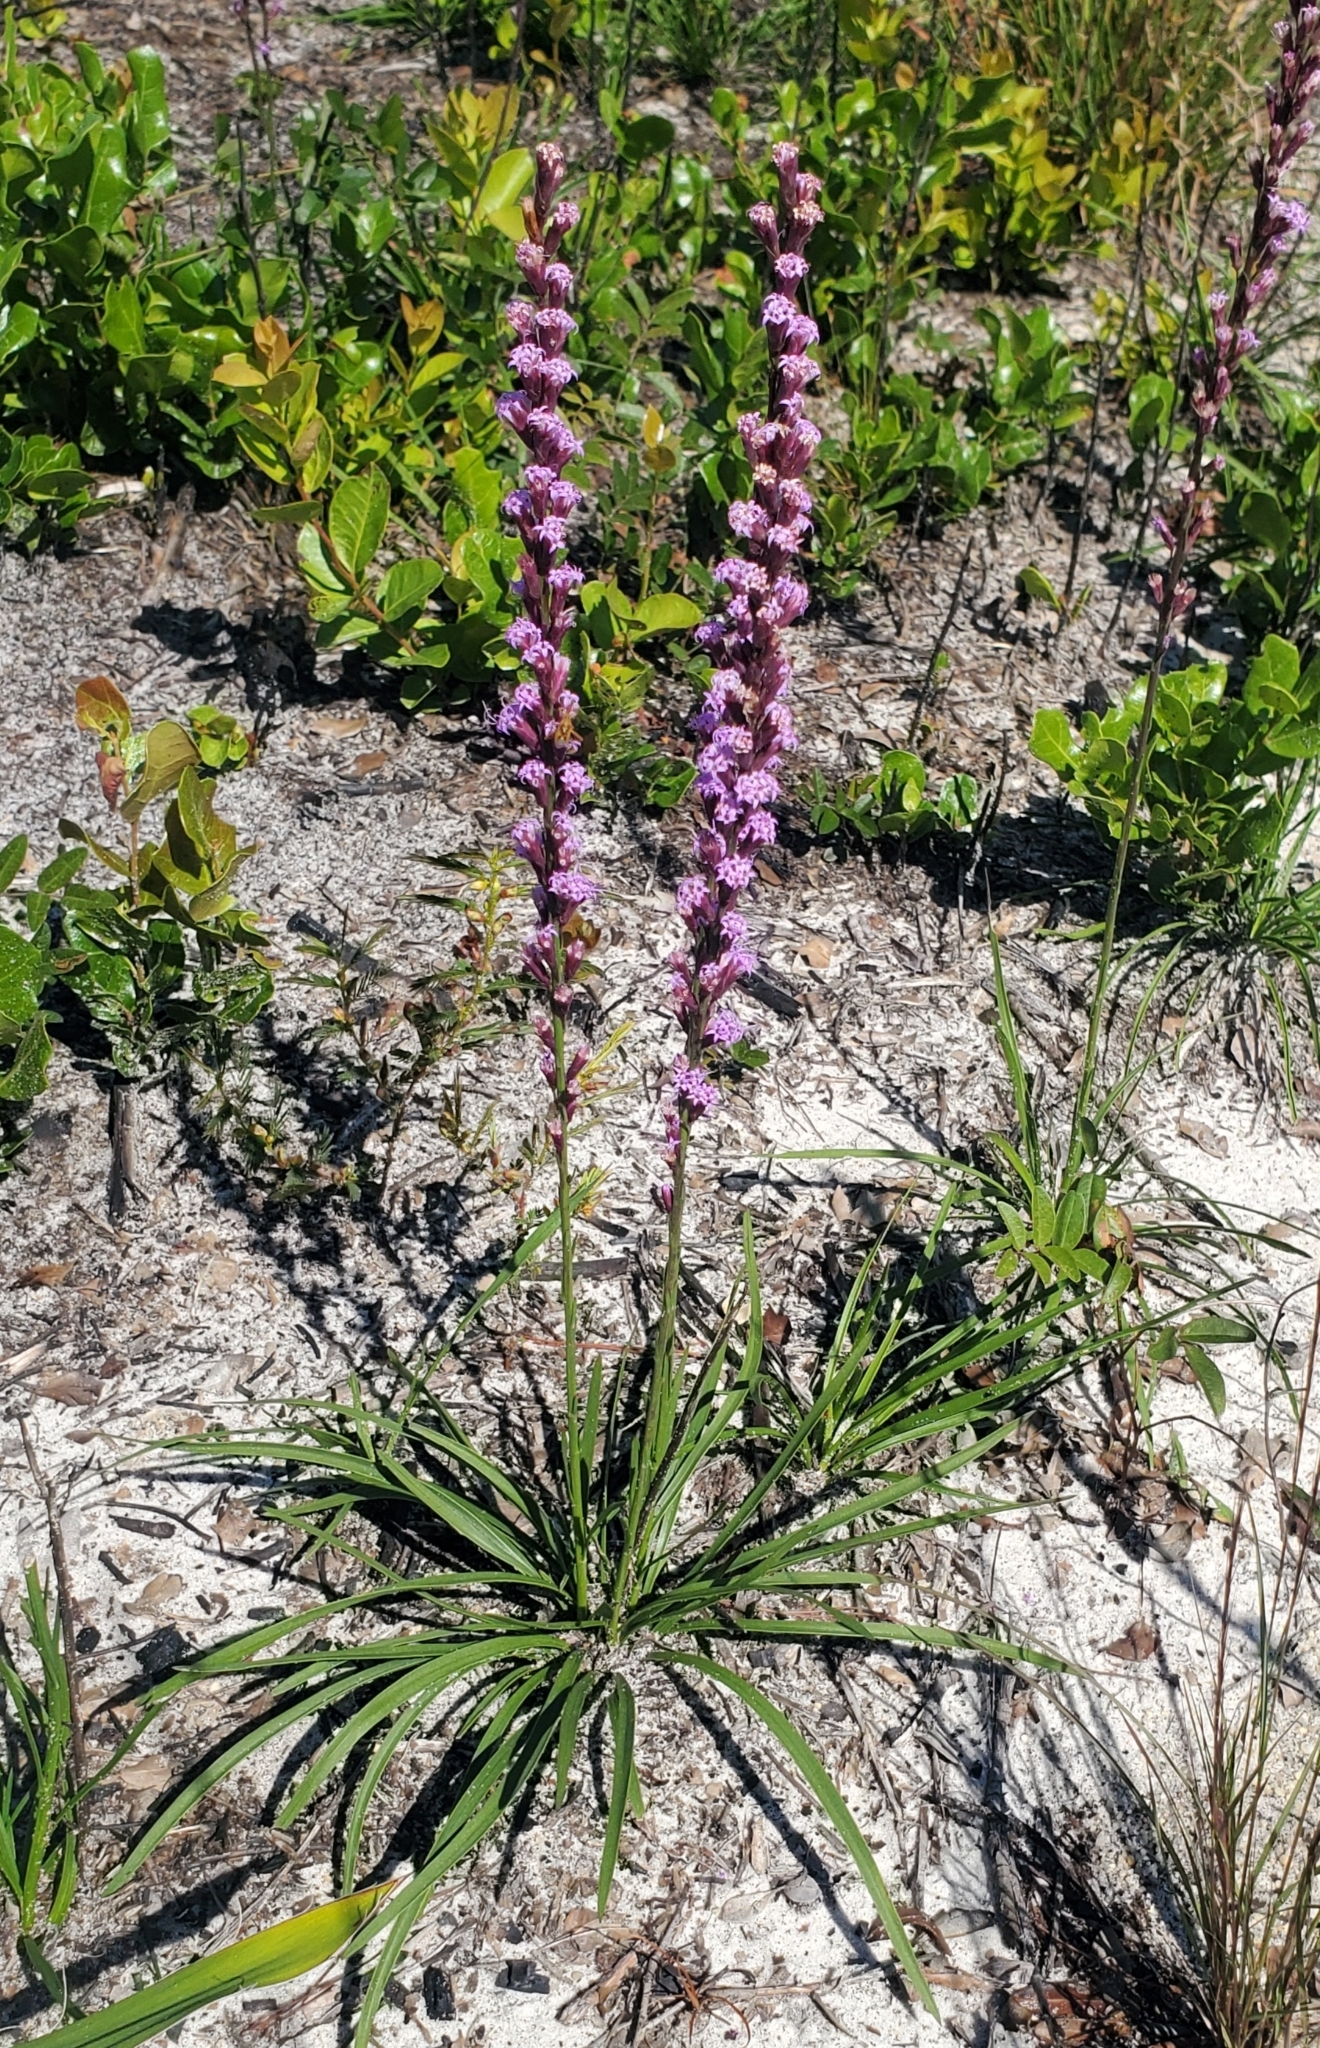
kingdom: Plantae
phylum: Tracheophyta
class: Magnoliopsida
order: Asterales
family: Asteraceae
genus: Liatris
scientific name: Liatris laevigata
